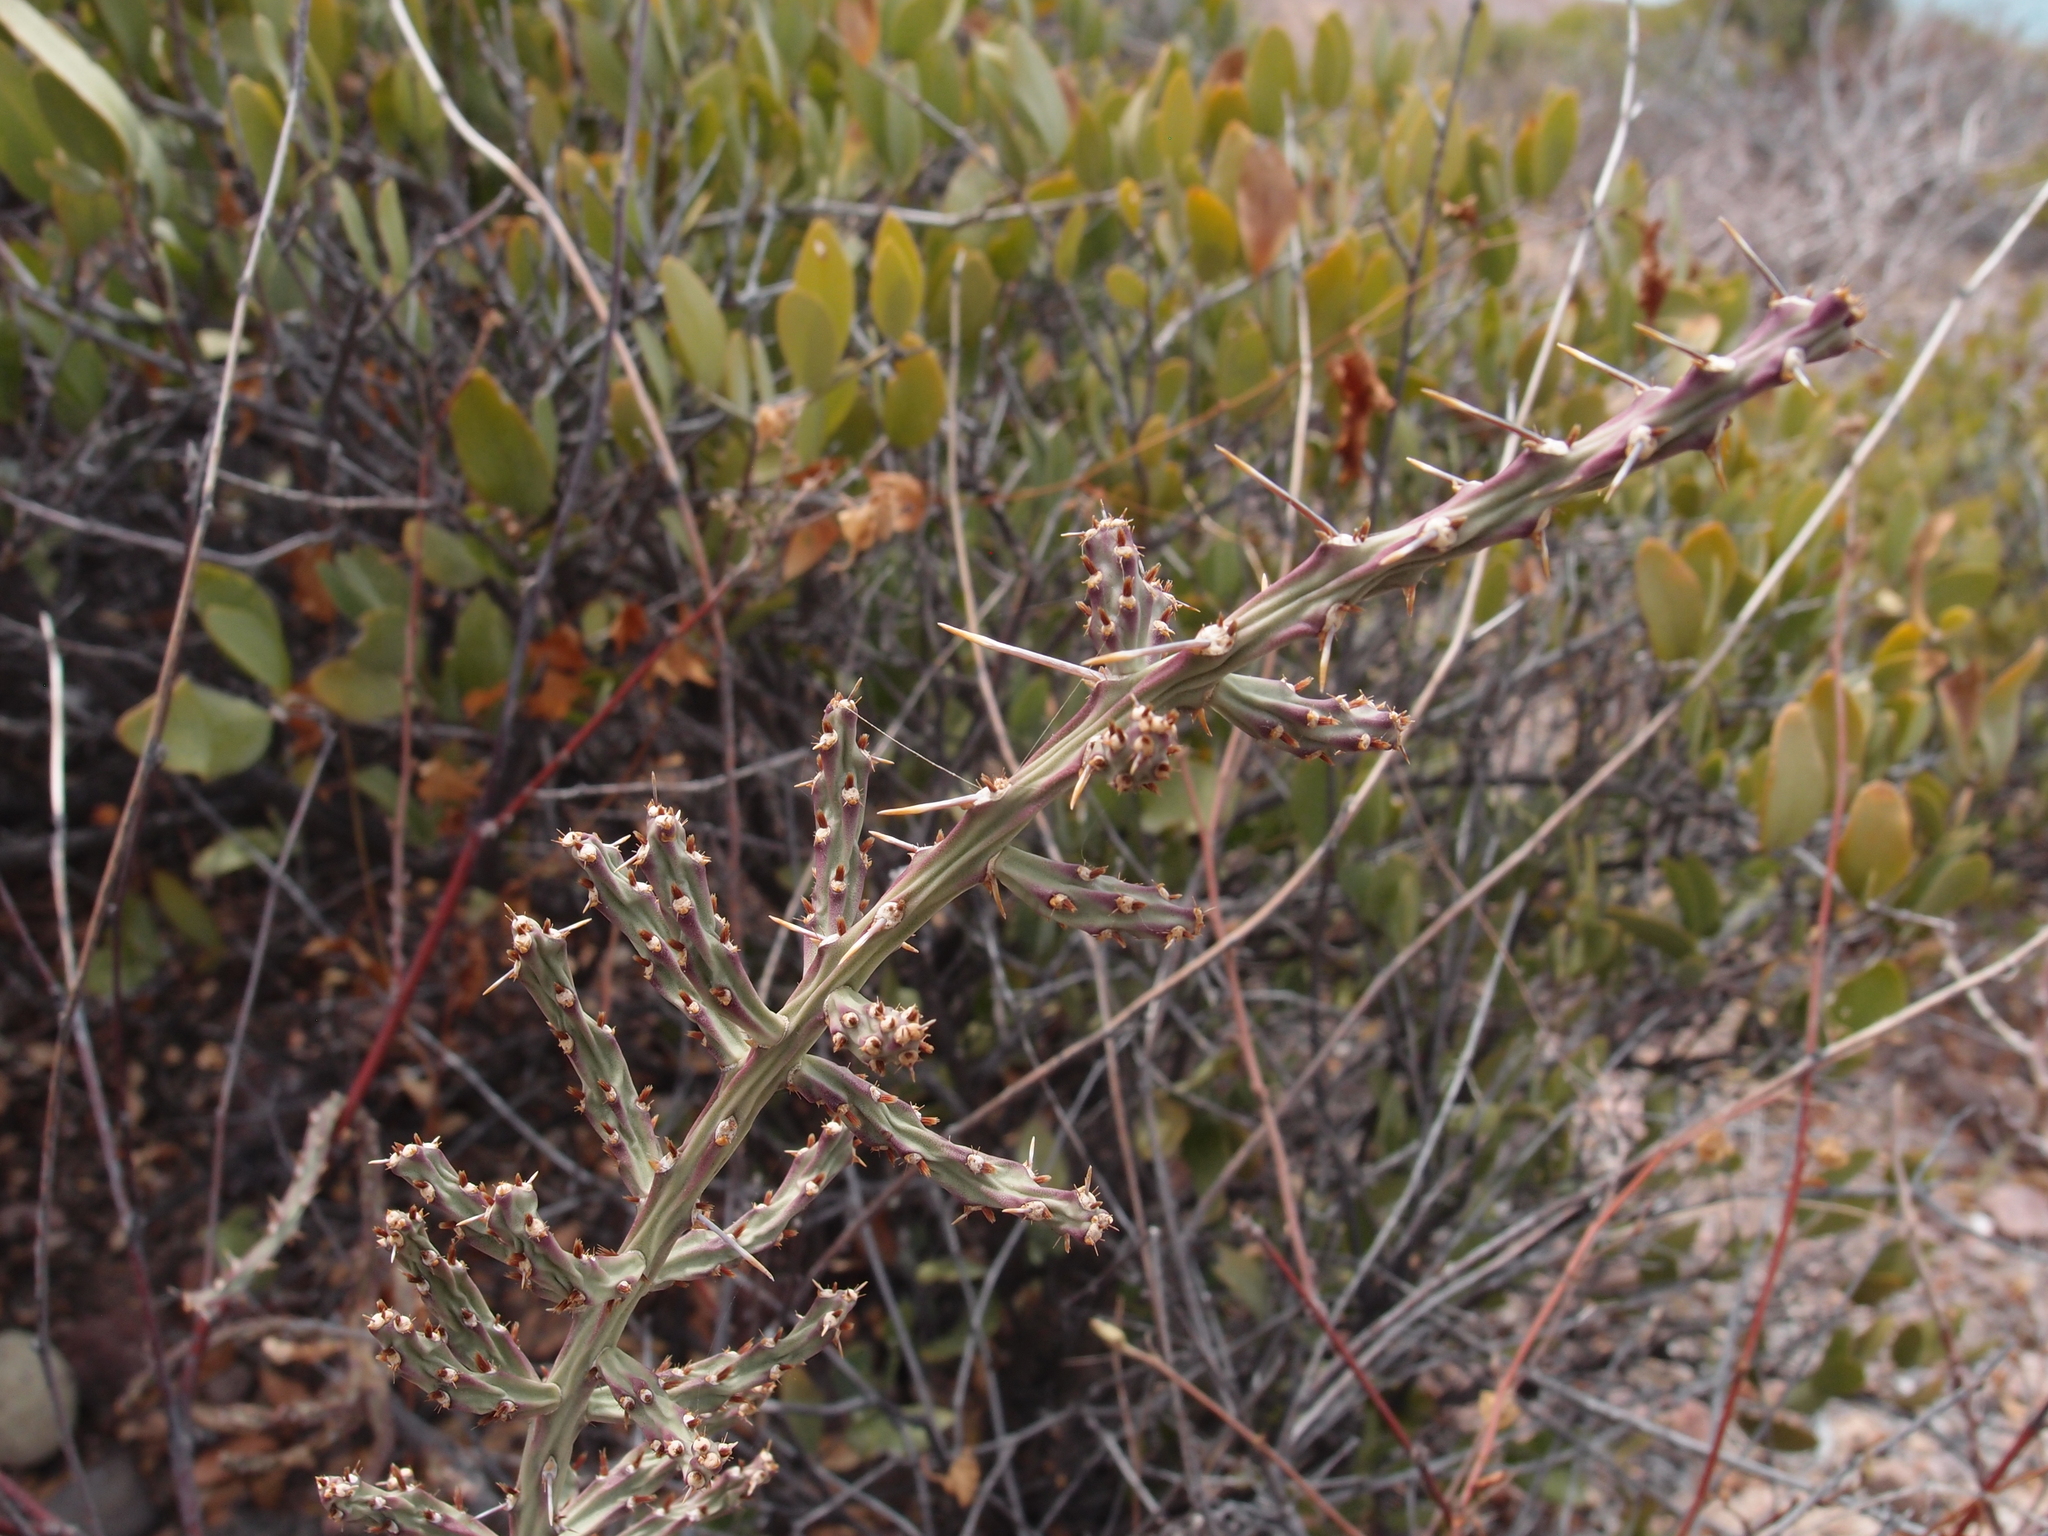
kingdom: Plantae
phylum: Tracheophyta
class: Magnoliopsida
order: Caryophyllales
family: Cactaceae
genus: Cylindropuntia
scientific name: Cylindropuntia leptocaulis
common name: Christmas cactus
